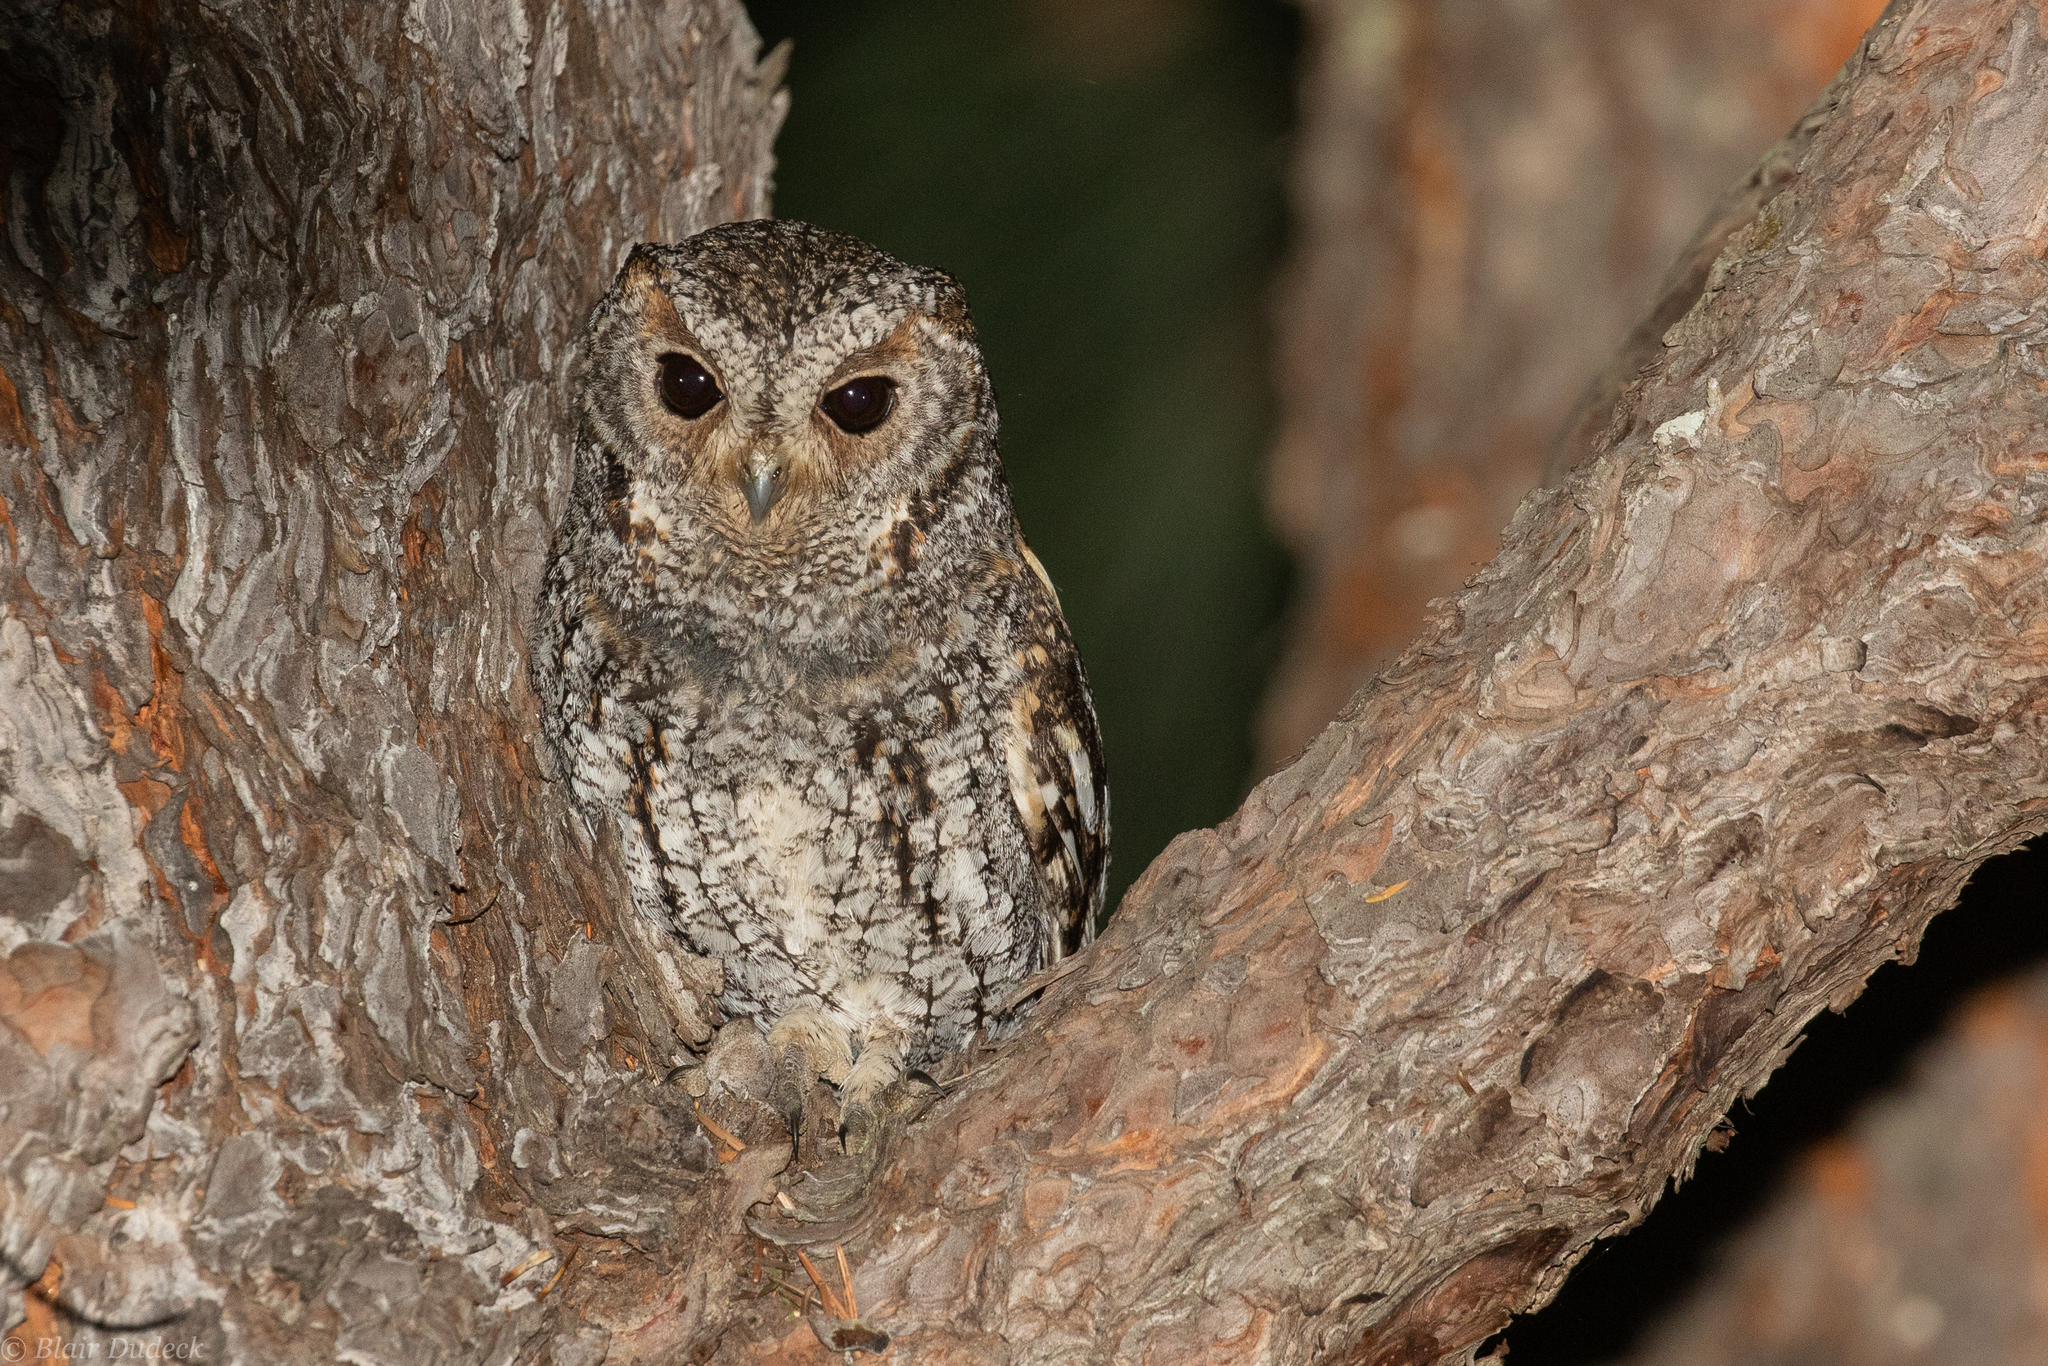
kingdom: Animalia
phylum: Chordata
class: Aves
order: Strigiformes
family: Strigidae
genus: Psiloscops
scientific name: Psiloscops flammeolus
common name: Flammulated owl
